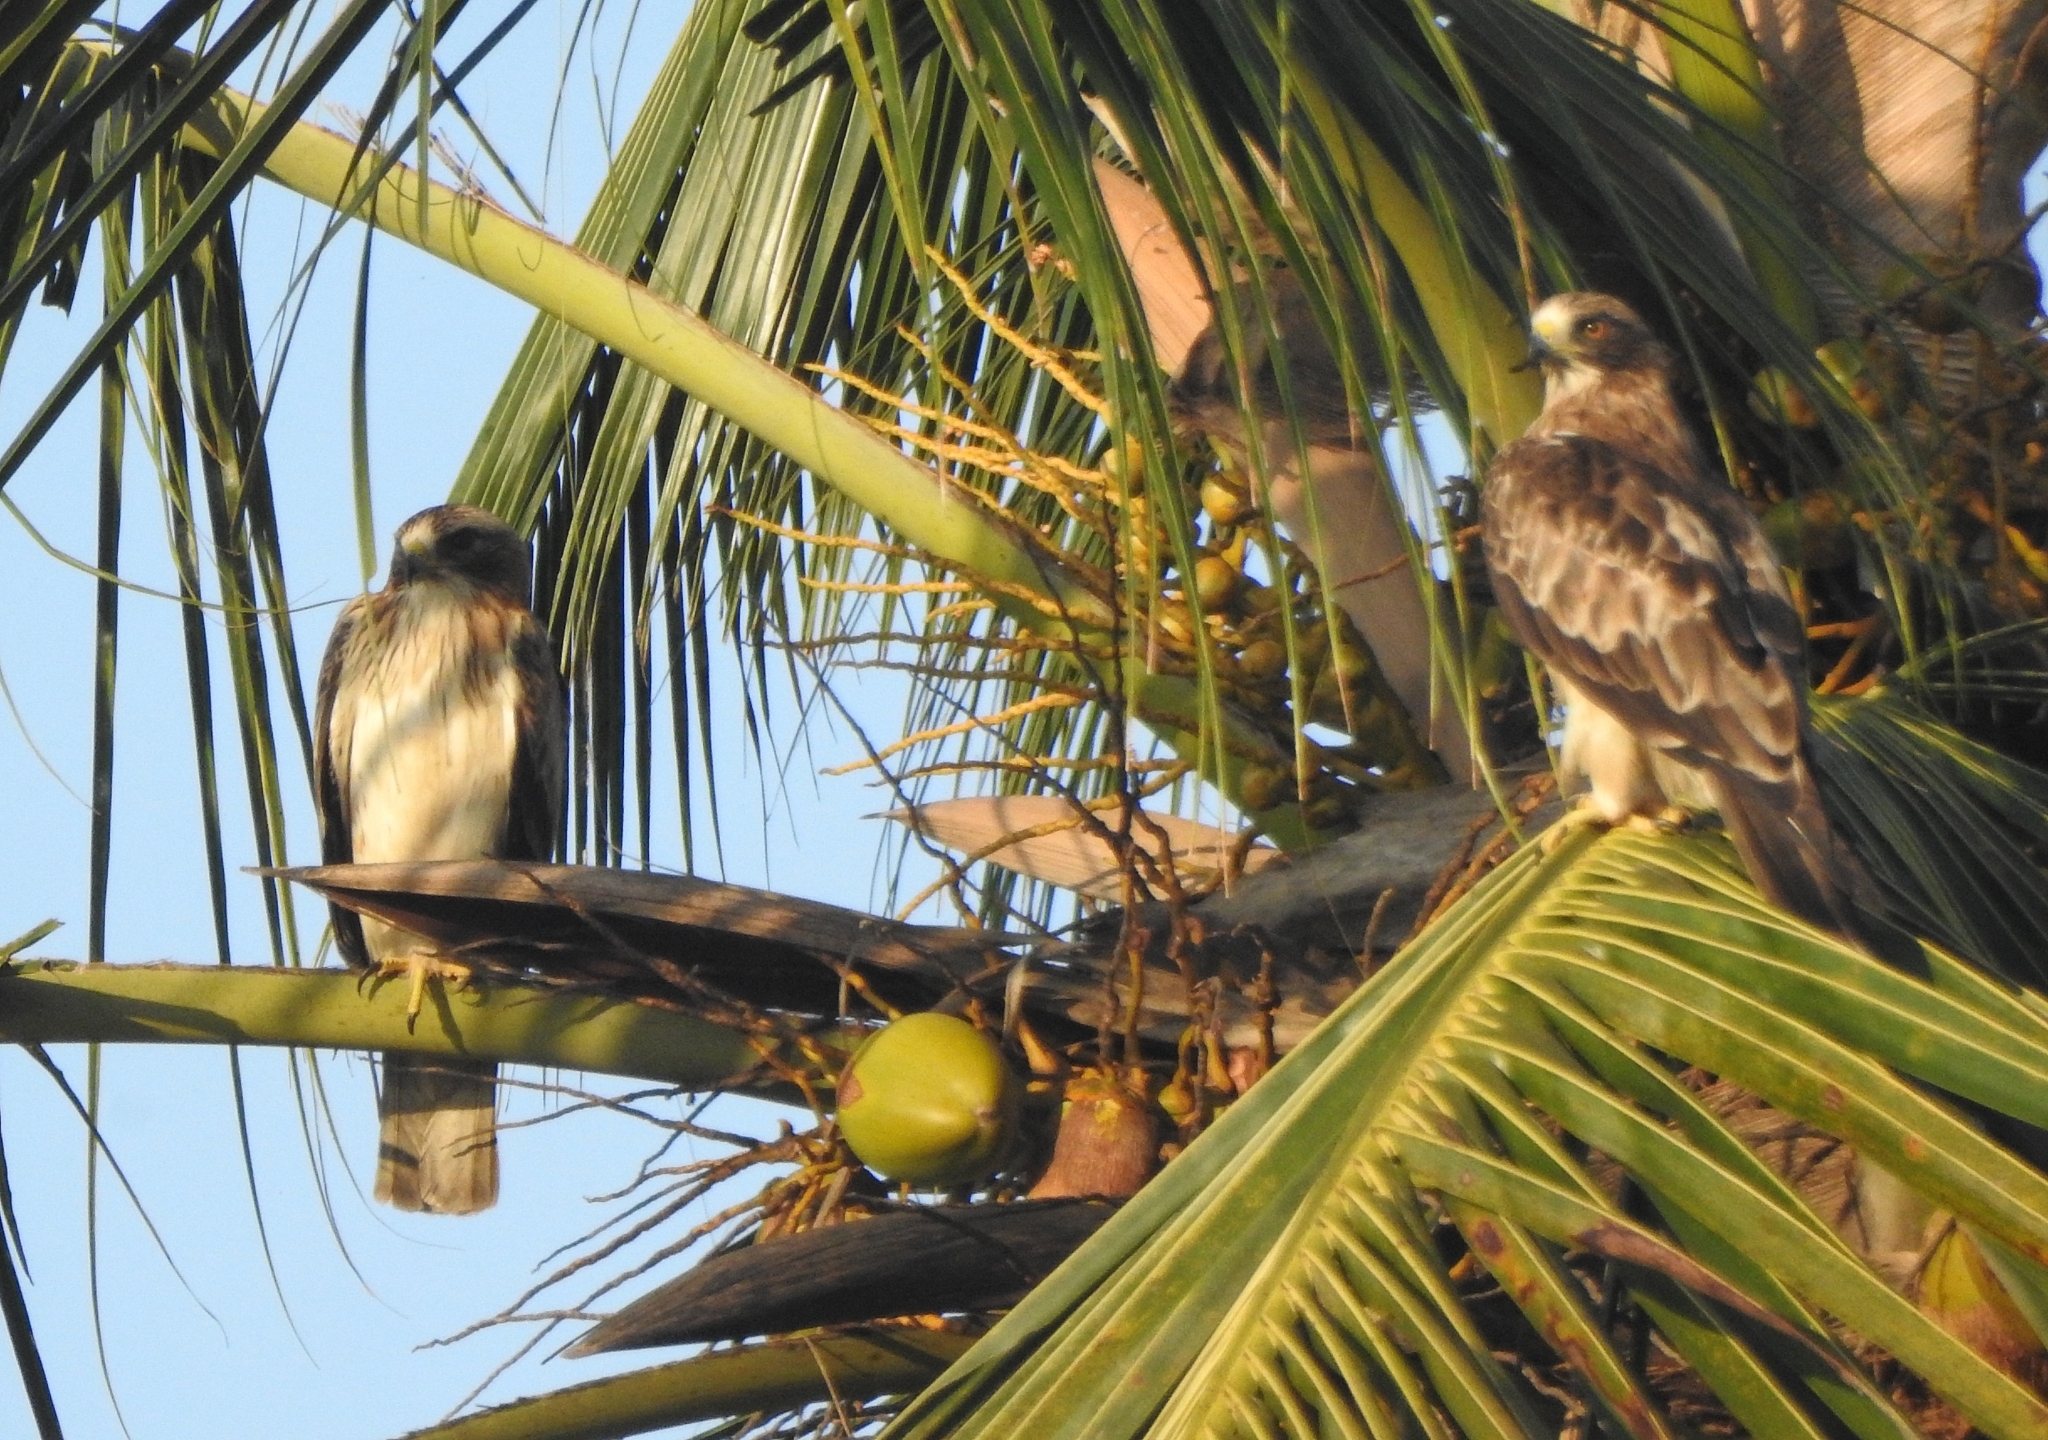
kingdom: Animalia
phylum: Chordata
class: Aves
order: Accipitriformes
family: Accipitridae
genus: Hieraaetus
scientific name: Hieraaetus pennatus
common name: Booted eagle
